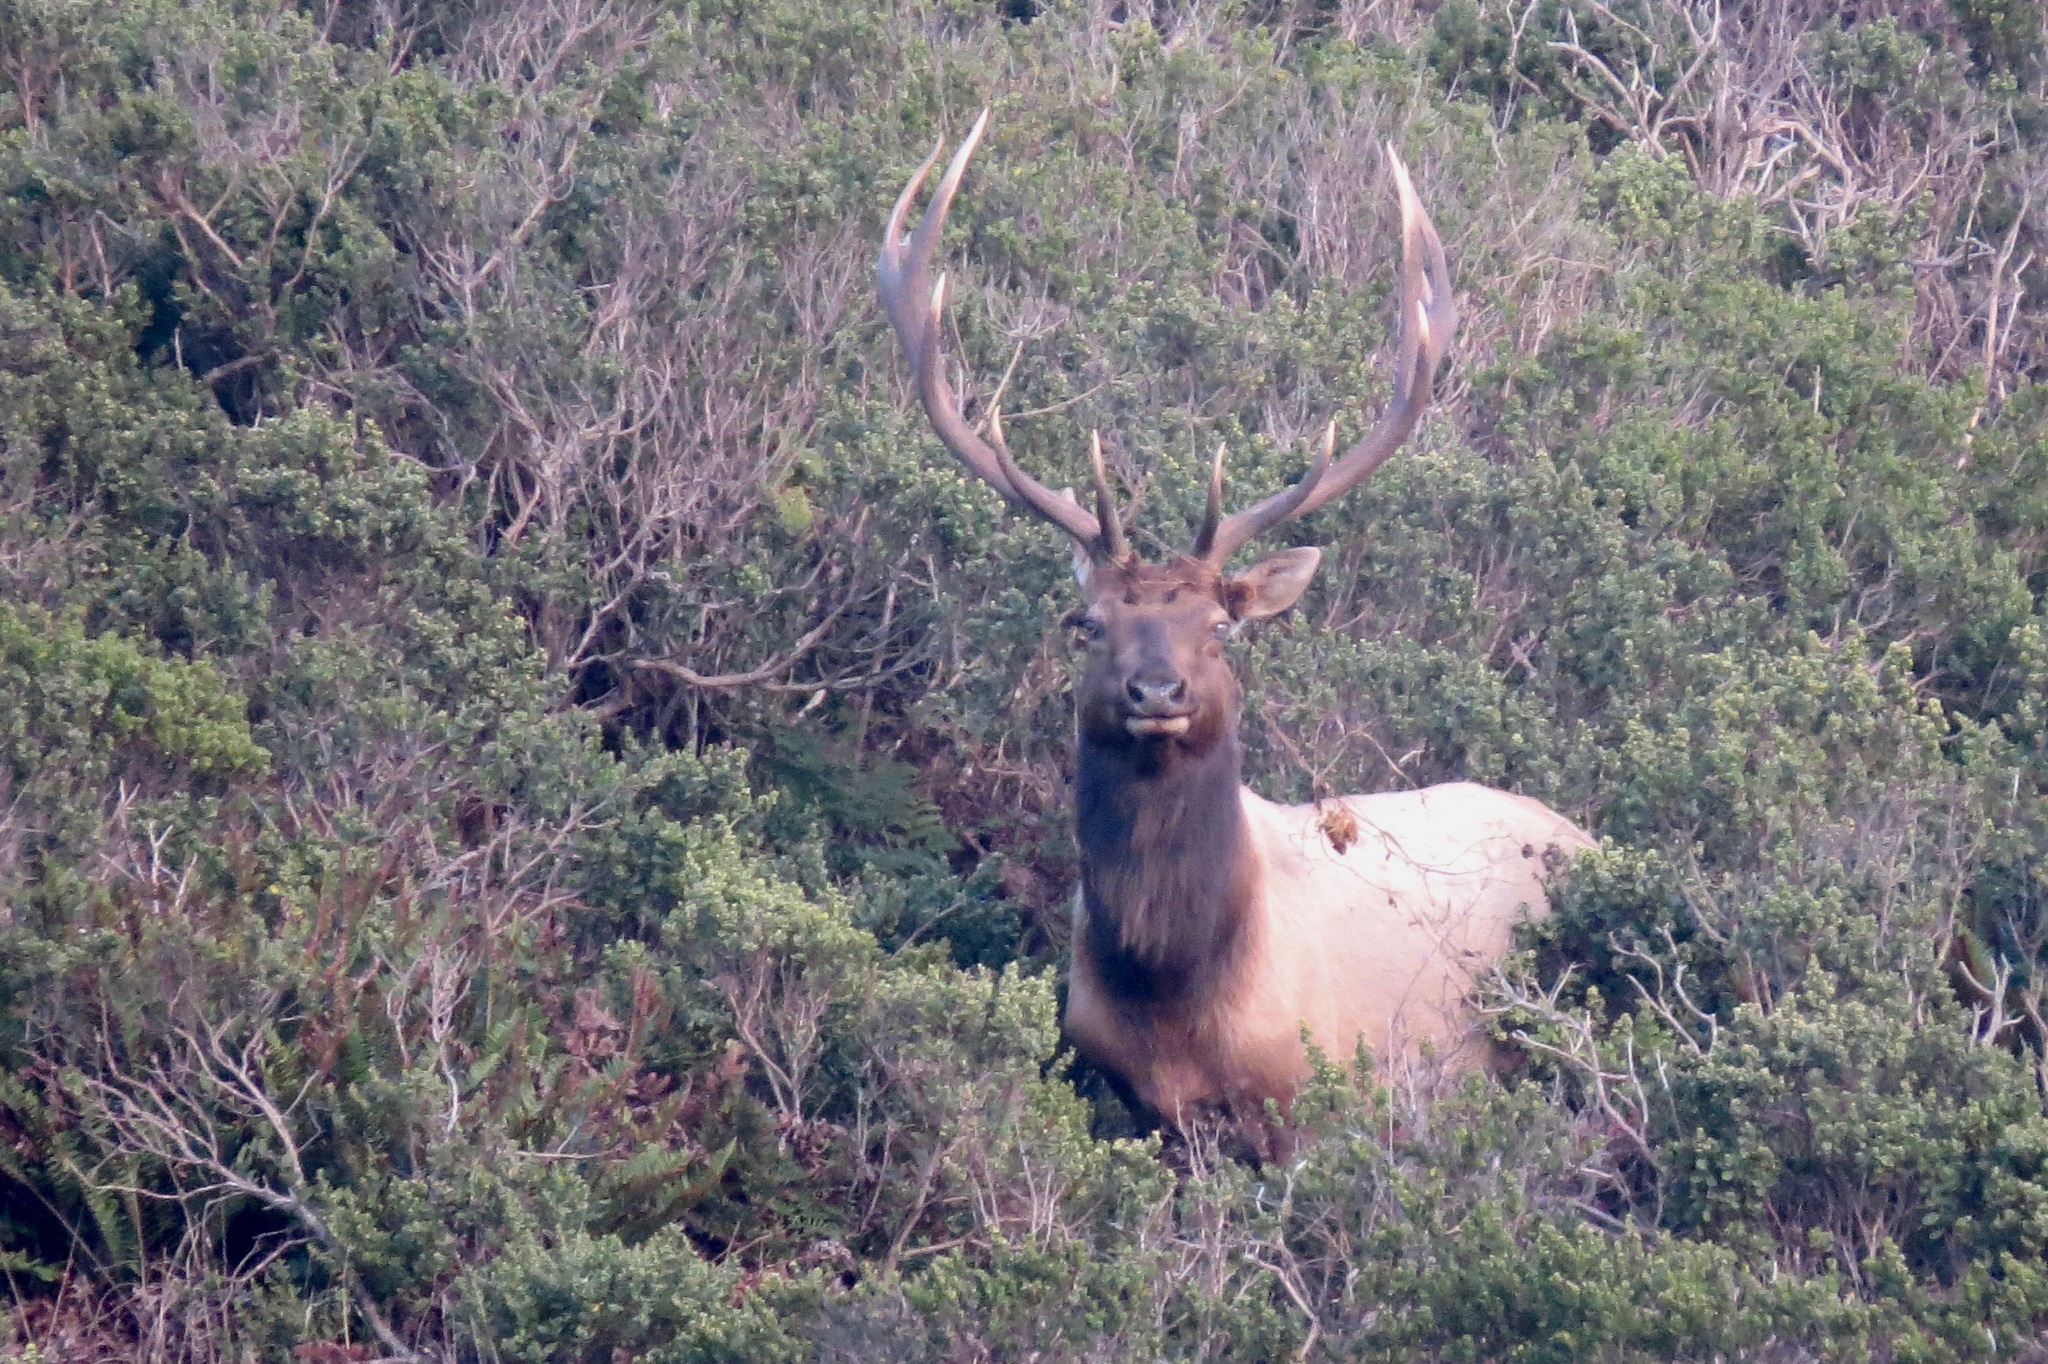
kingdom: Animalia
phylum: Chordata
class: Mammalia
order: Artiodactyla
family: Cervidae
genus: Cervus
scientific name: Cervus elaphus
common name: Red deer
